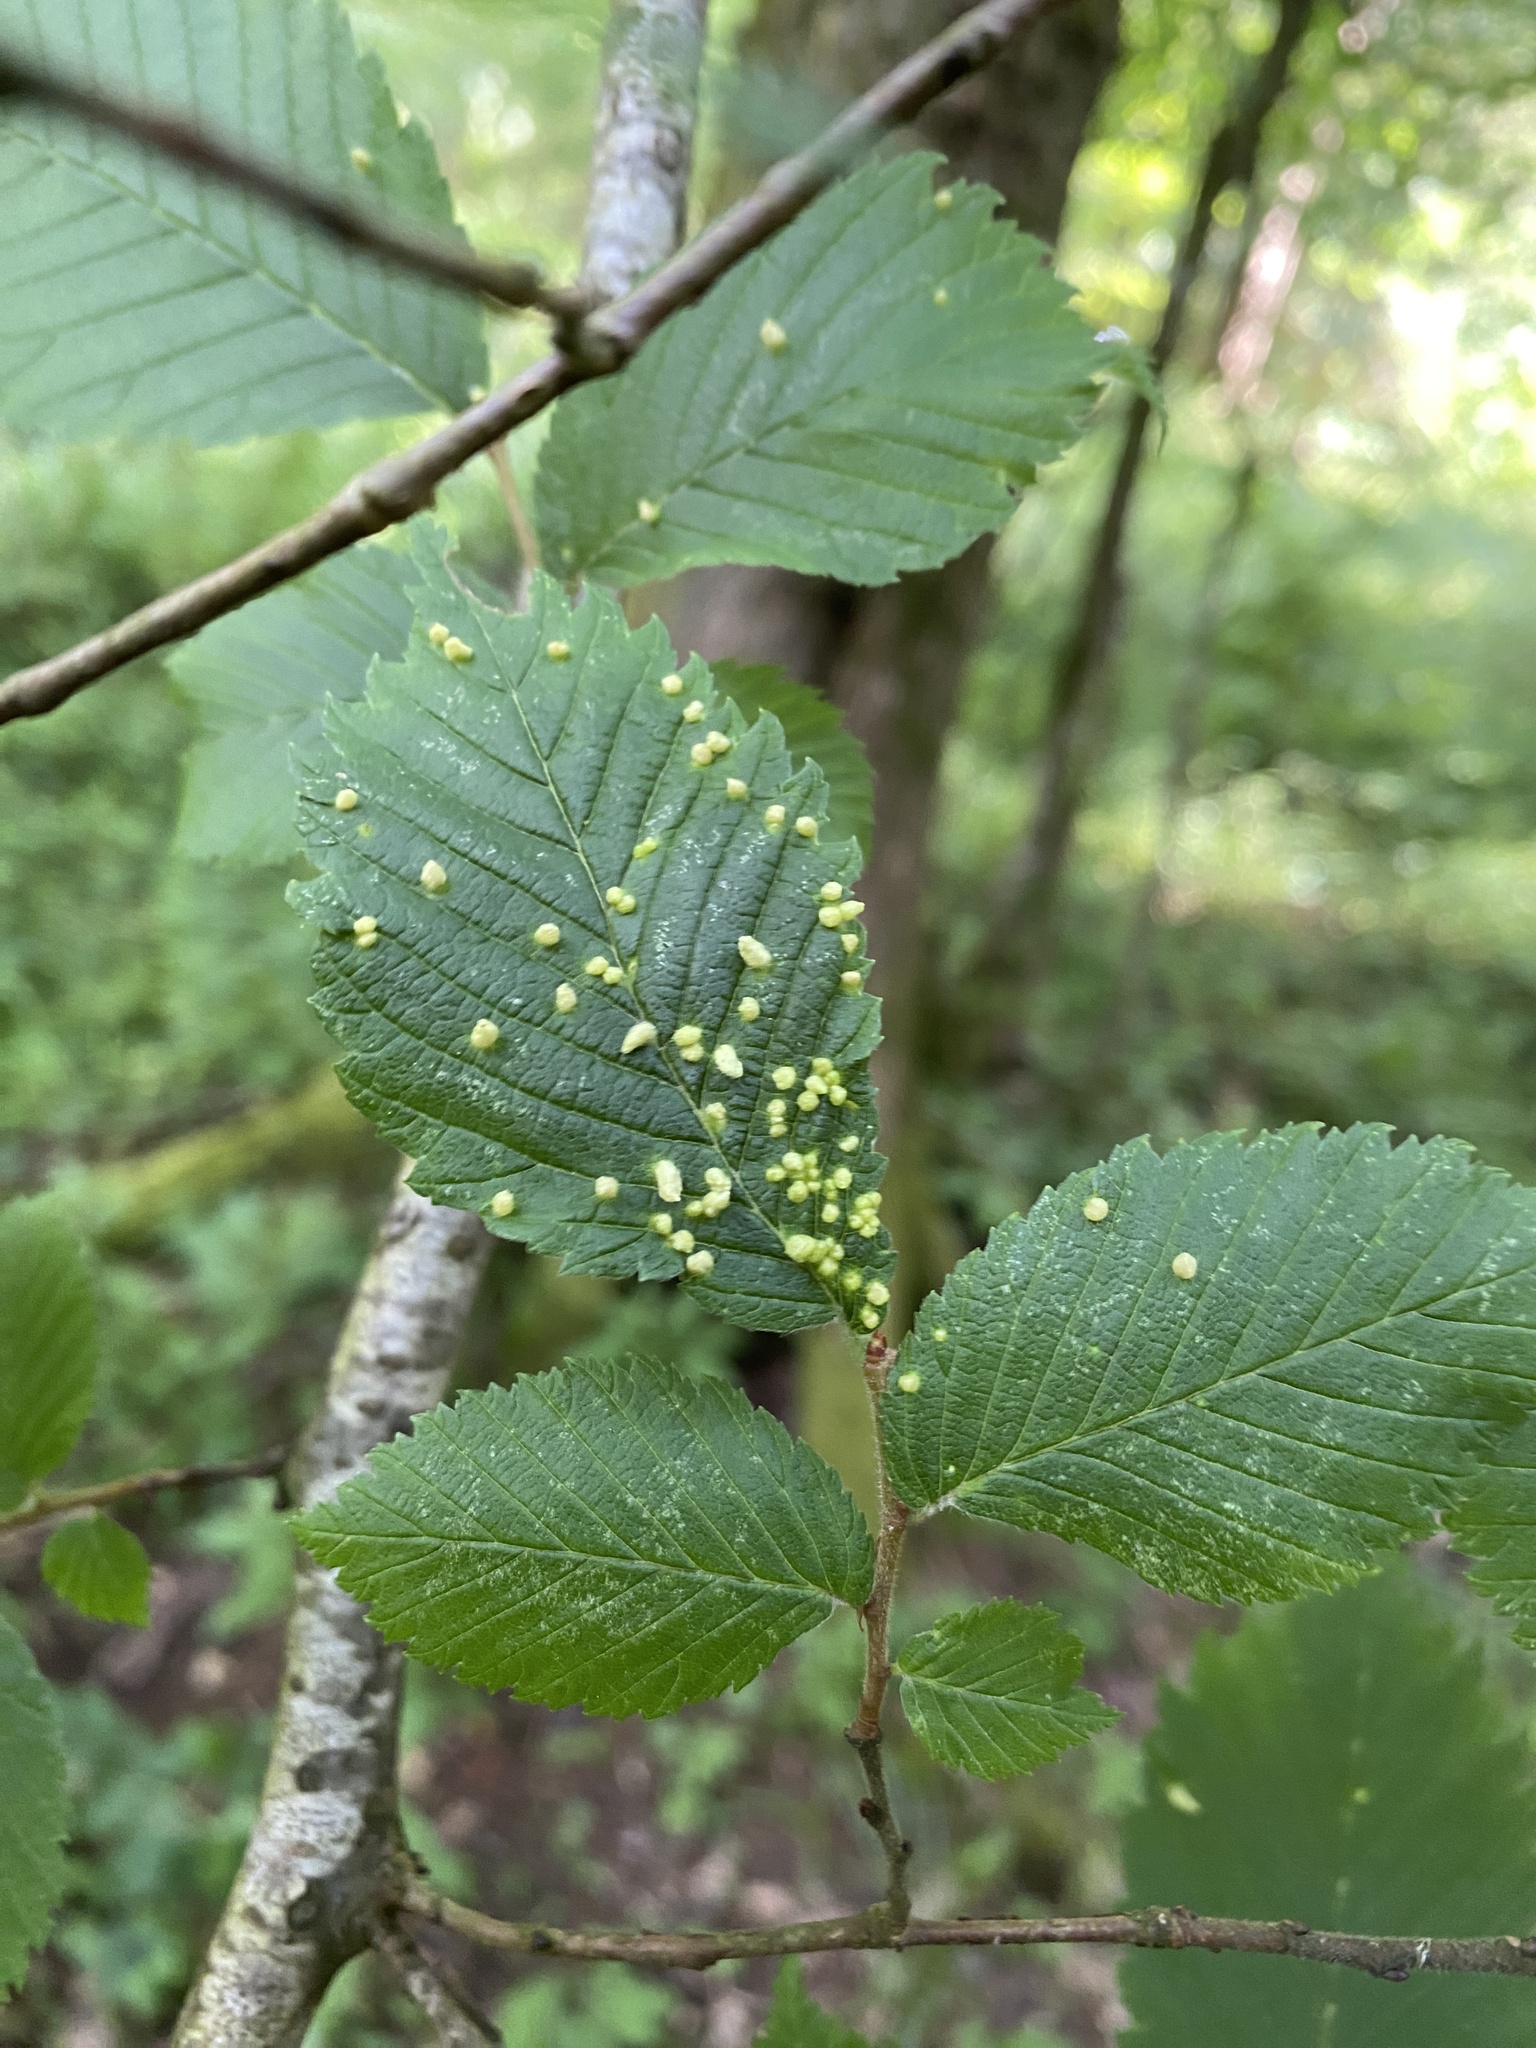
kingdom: Animalia
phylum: Arthropoda
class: Arachnida
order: Trombidiformes
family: Eriophyidae
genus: Aceria
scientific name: Aceria brevipunctata
